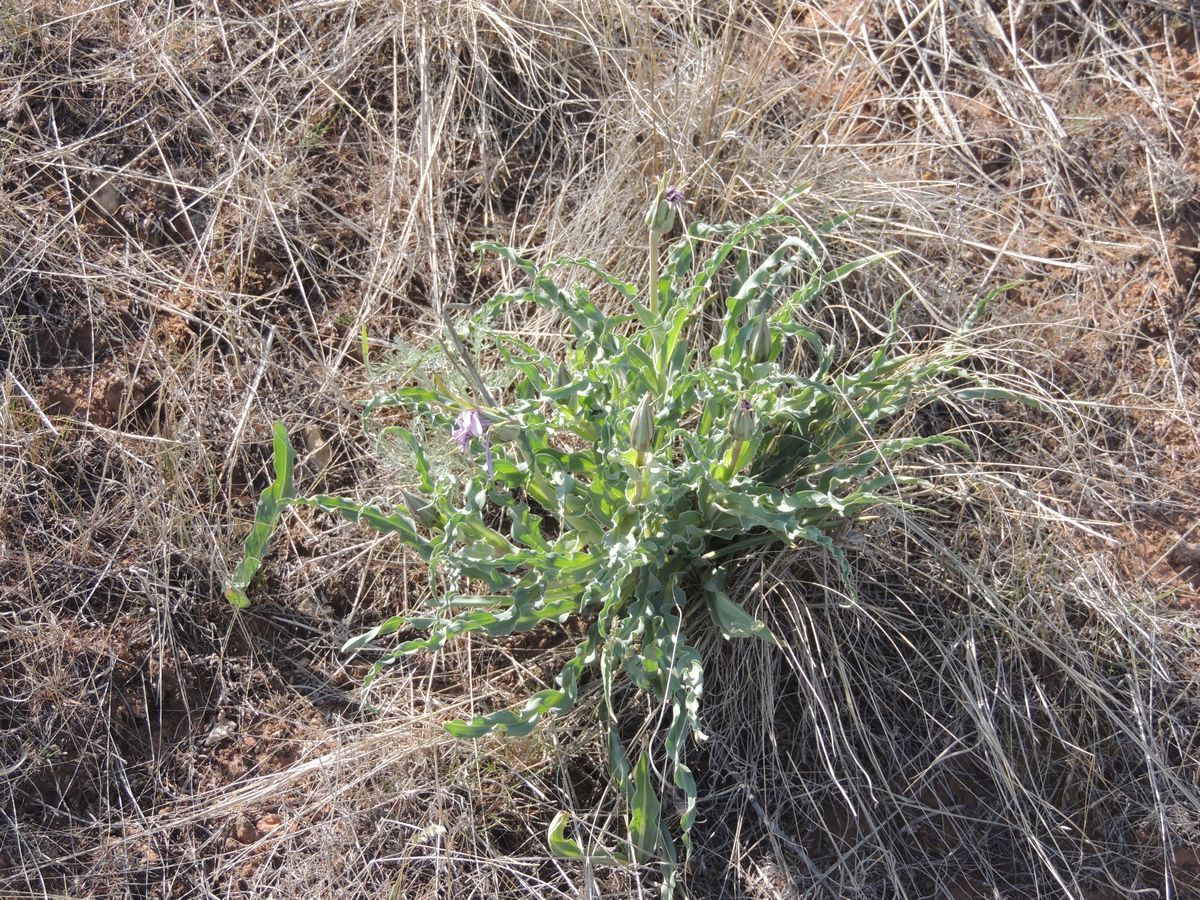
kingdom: Plantae
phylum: Tracheophyta
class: Magnoliopsida
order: Asterales
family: Asteraceae
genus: Tragopogon
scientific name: Tragopogon marginifolius
